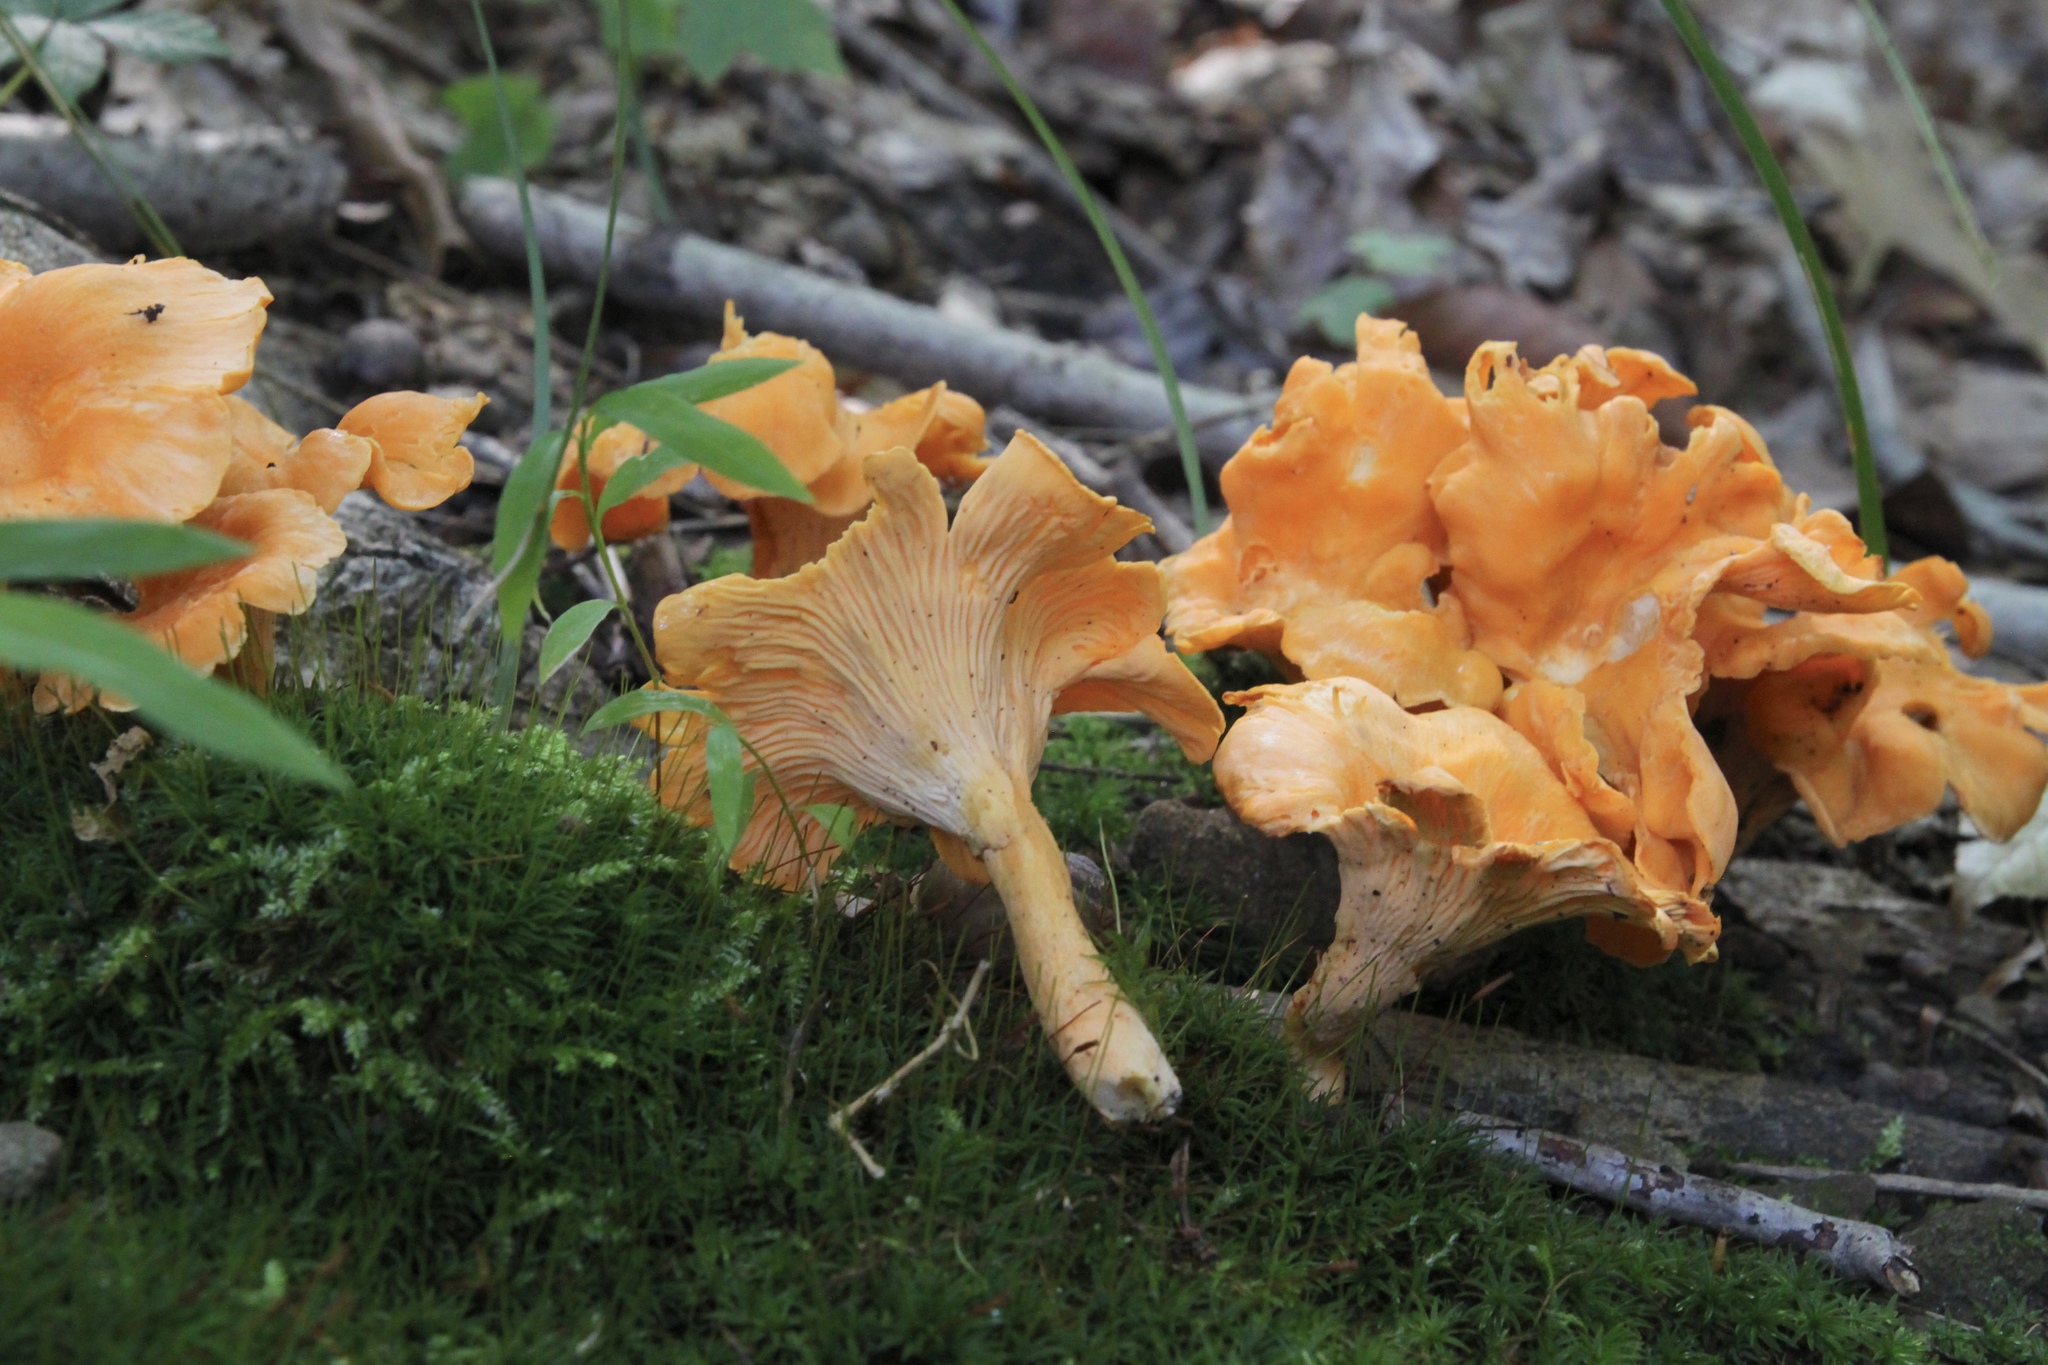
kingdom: Fungi
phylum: Basidiomycota
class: Agaricomycetes
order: Cantharellales
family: Hydnaceae
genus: Cantharellus
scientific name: Cantharellus lateritius
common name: Smooth chanterelle
